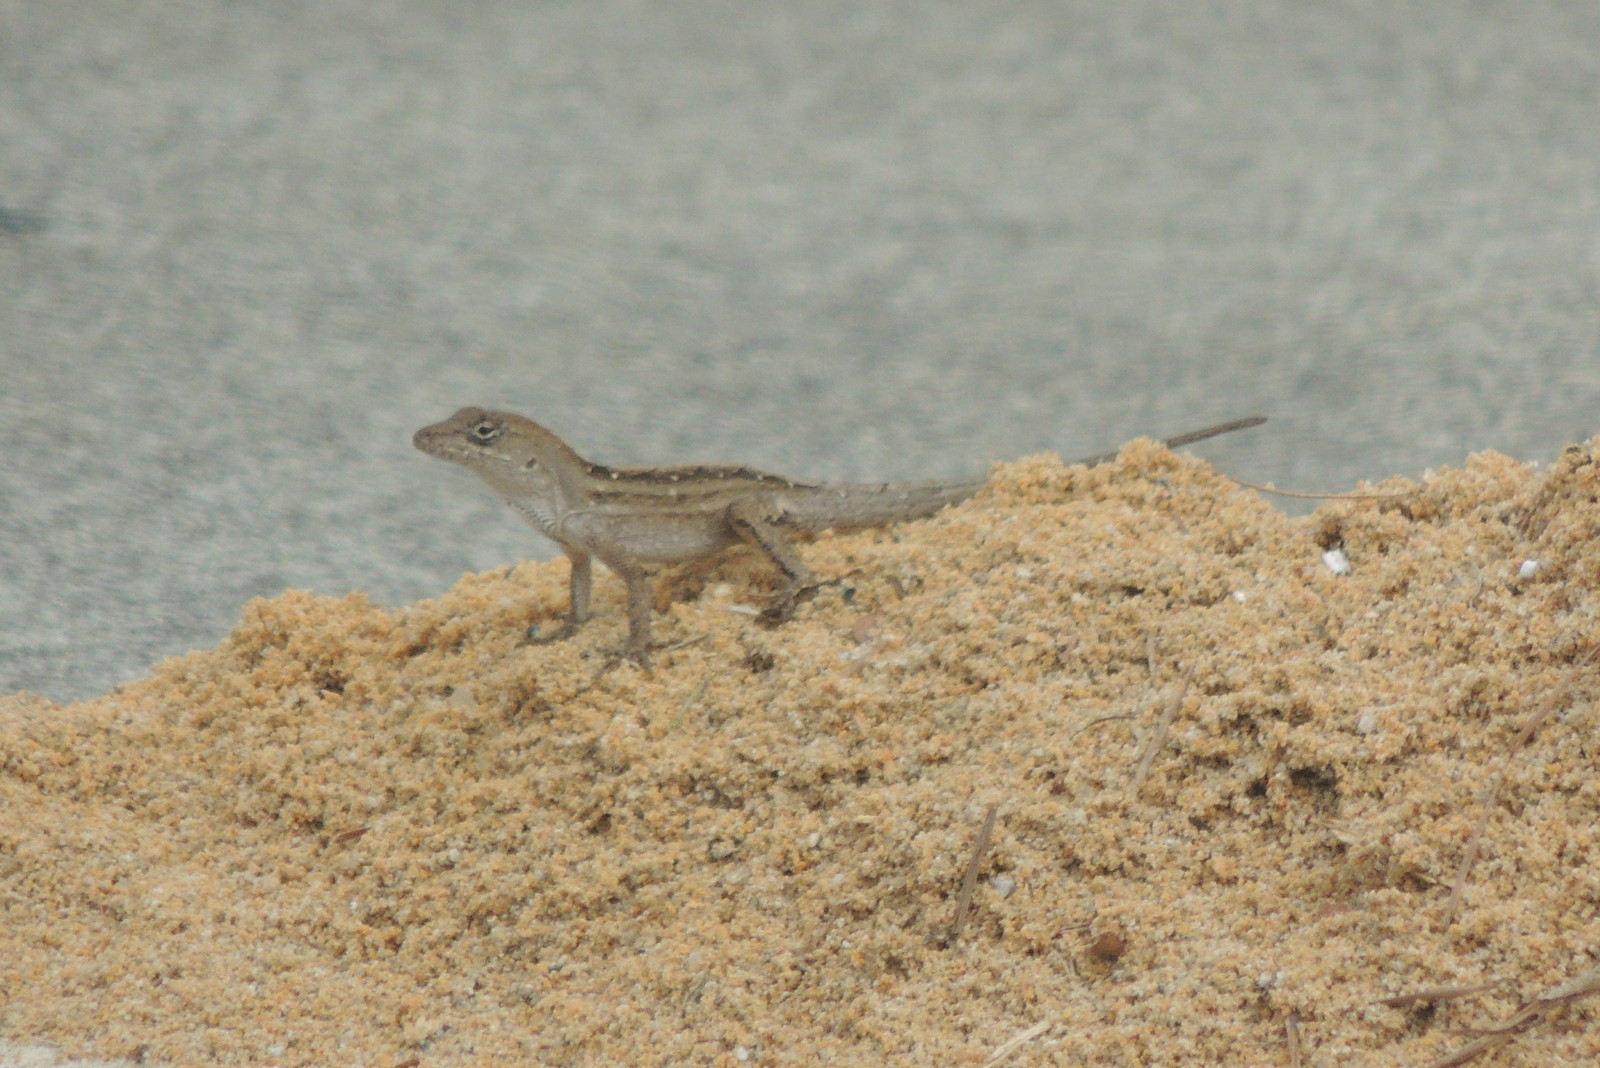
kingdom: Animalia
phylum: Chordata
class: Squamata
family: Dactyloidae
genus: Anolis
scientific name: Anolis sagrei
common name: Brown anole
